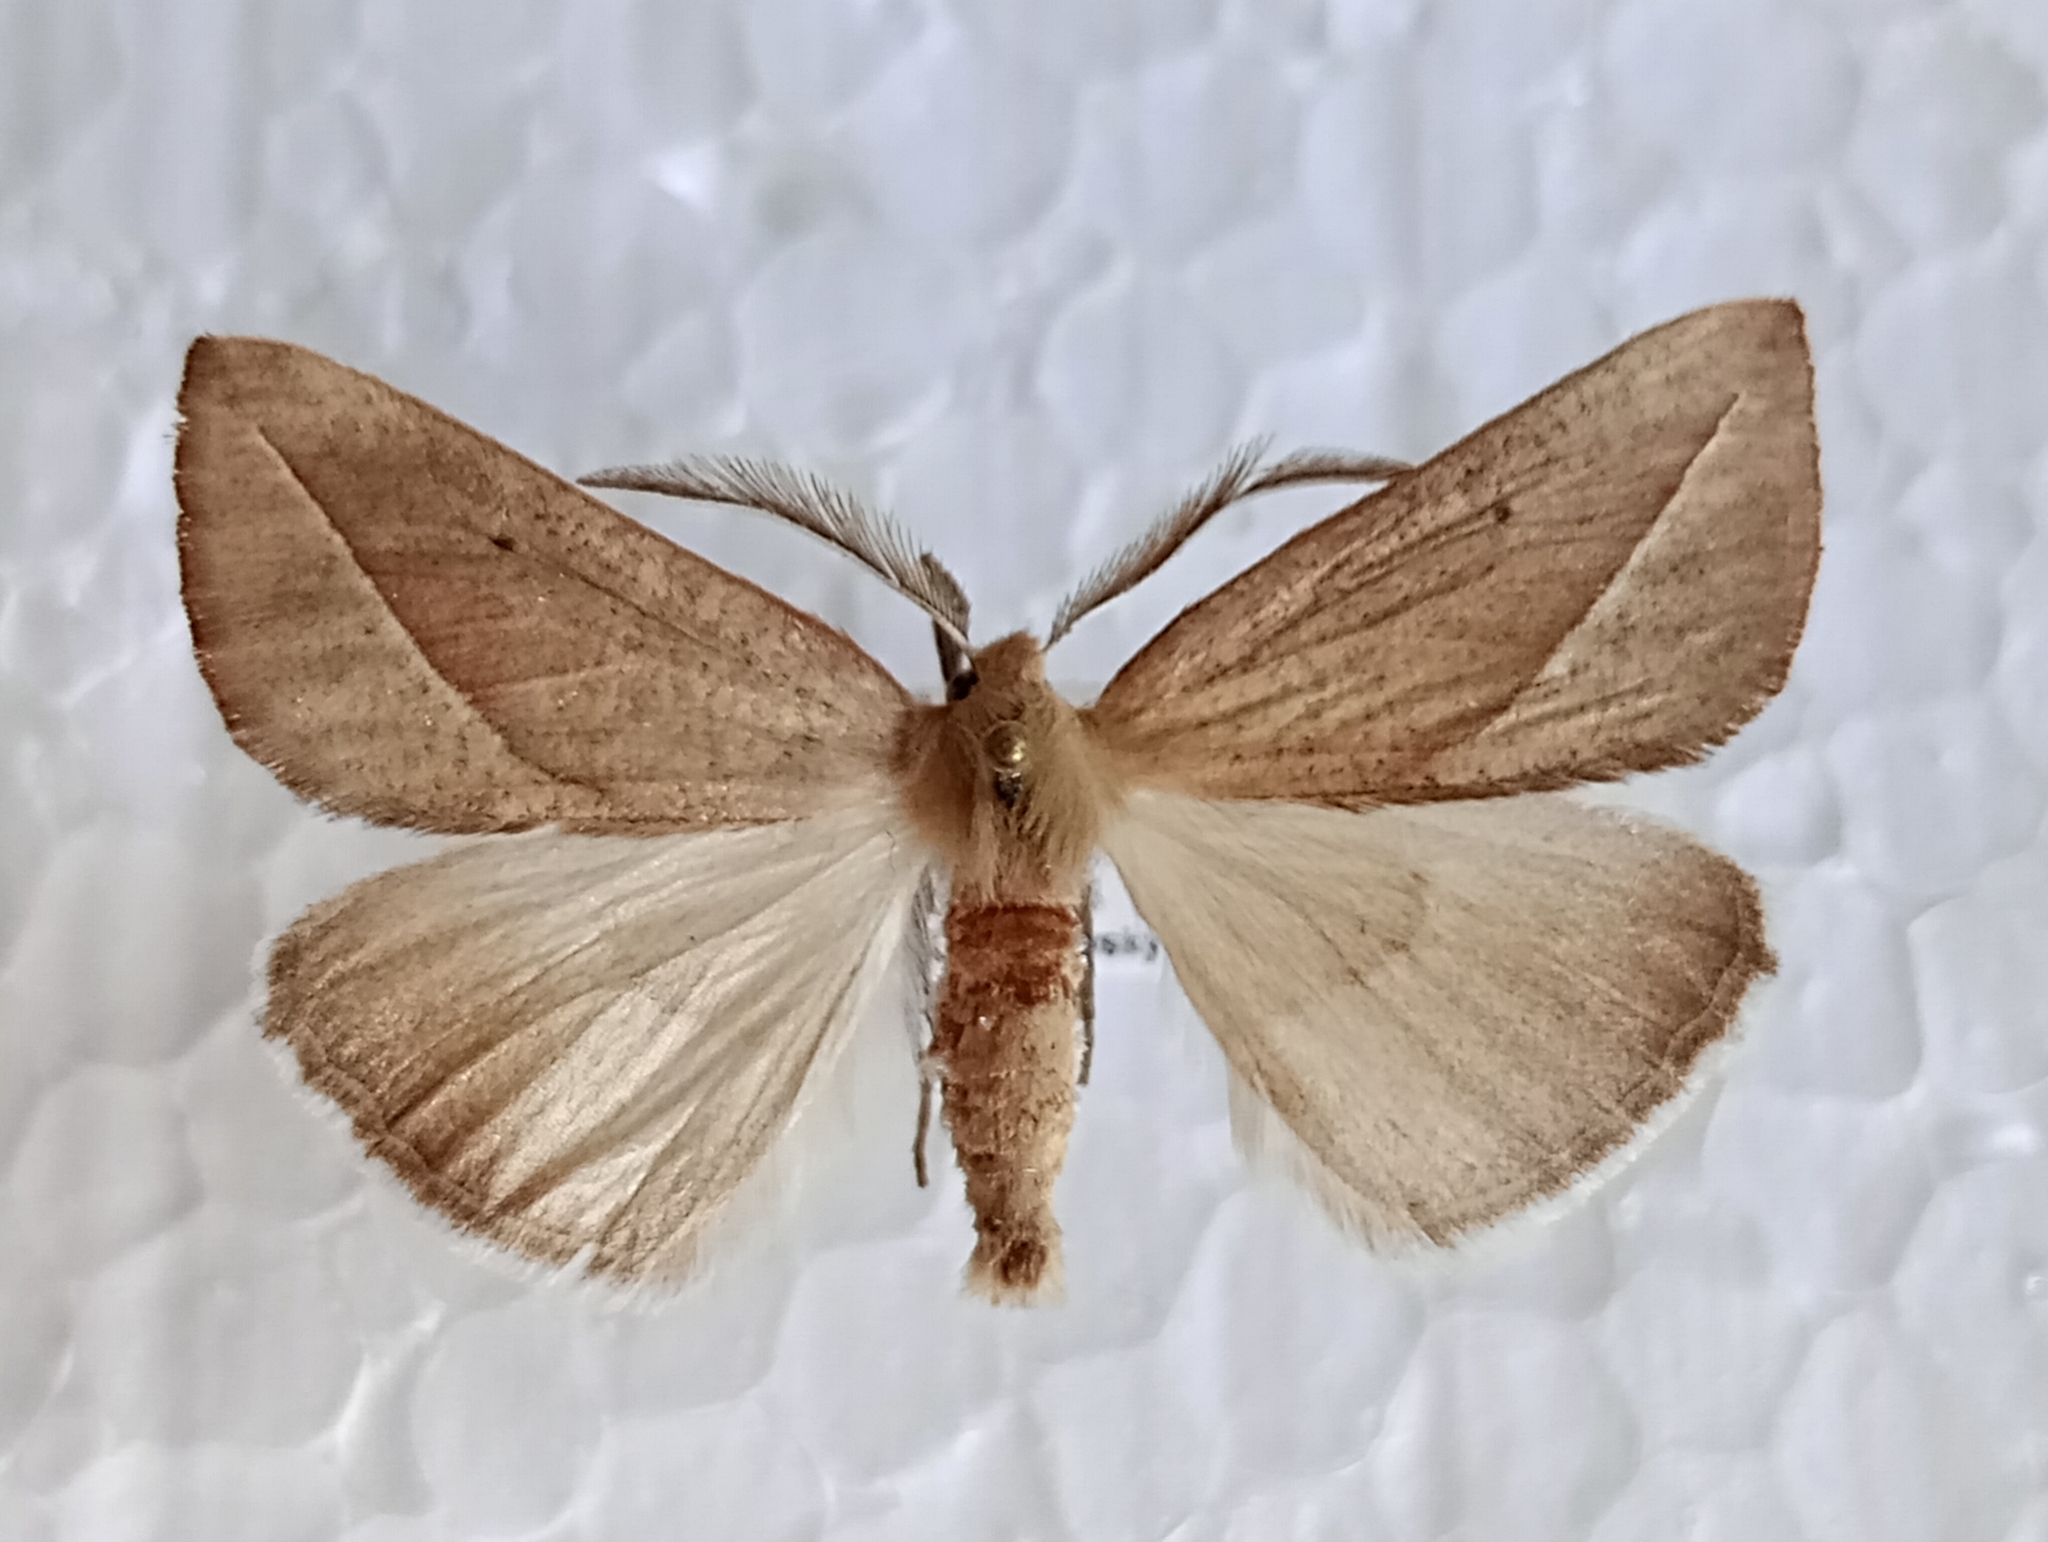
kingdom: Animalia
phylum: Arthropoda
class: Insecta
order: Lepidoptera
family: Geometridae
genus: Compsoptera
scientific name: Compsoptera opacaria
